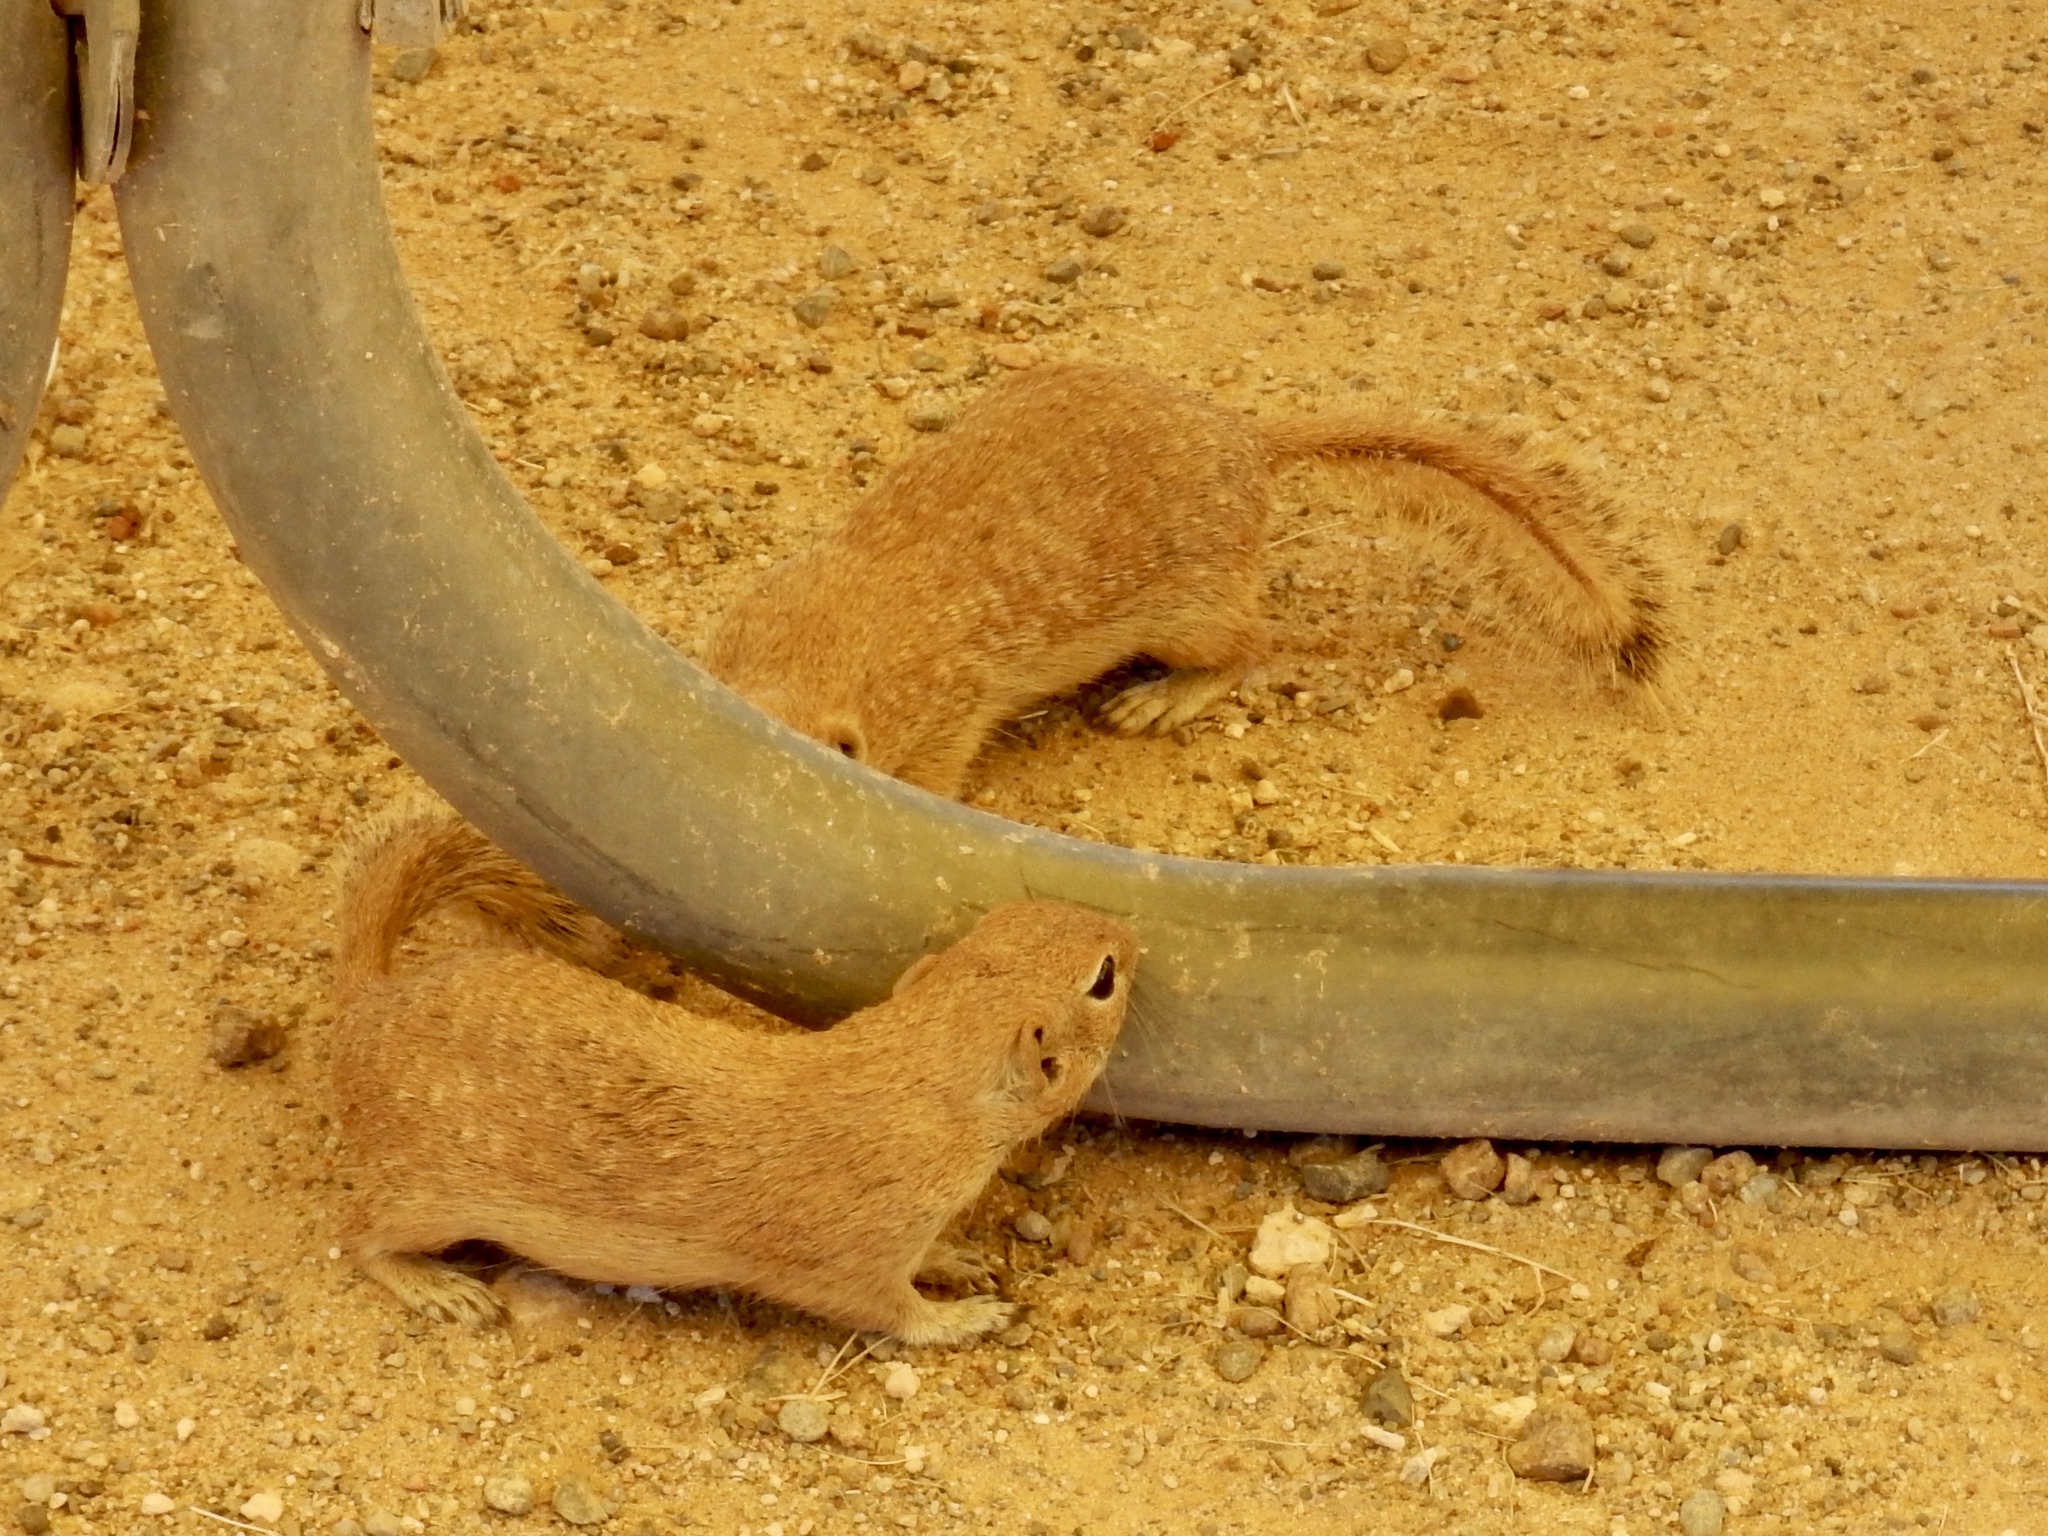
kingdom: Animalia
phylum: Chordata
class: Mammalia
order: Rodentia
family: Sciuridae
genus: Xerospermophilus
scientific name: Xerospermophilus spilosoma
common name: Spotted ground squirrel
